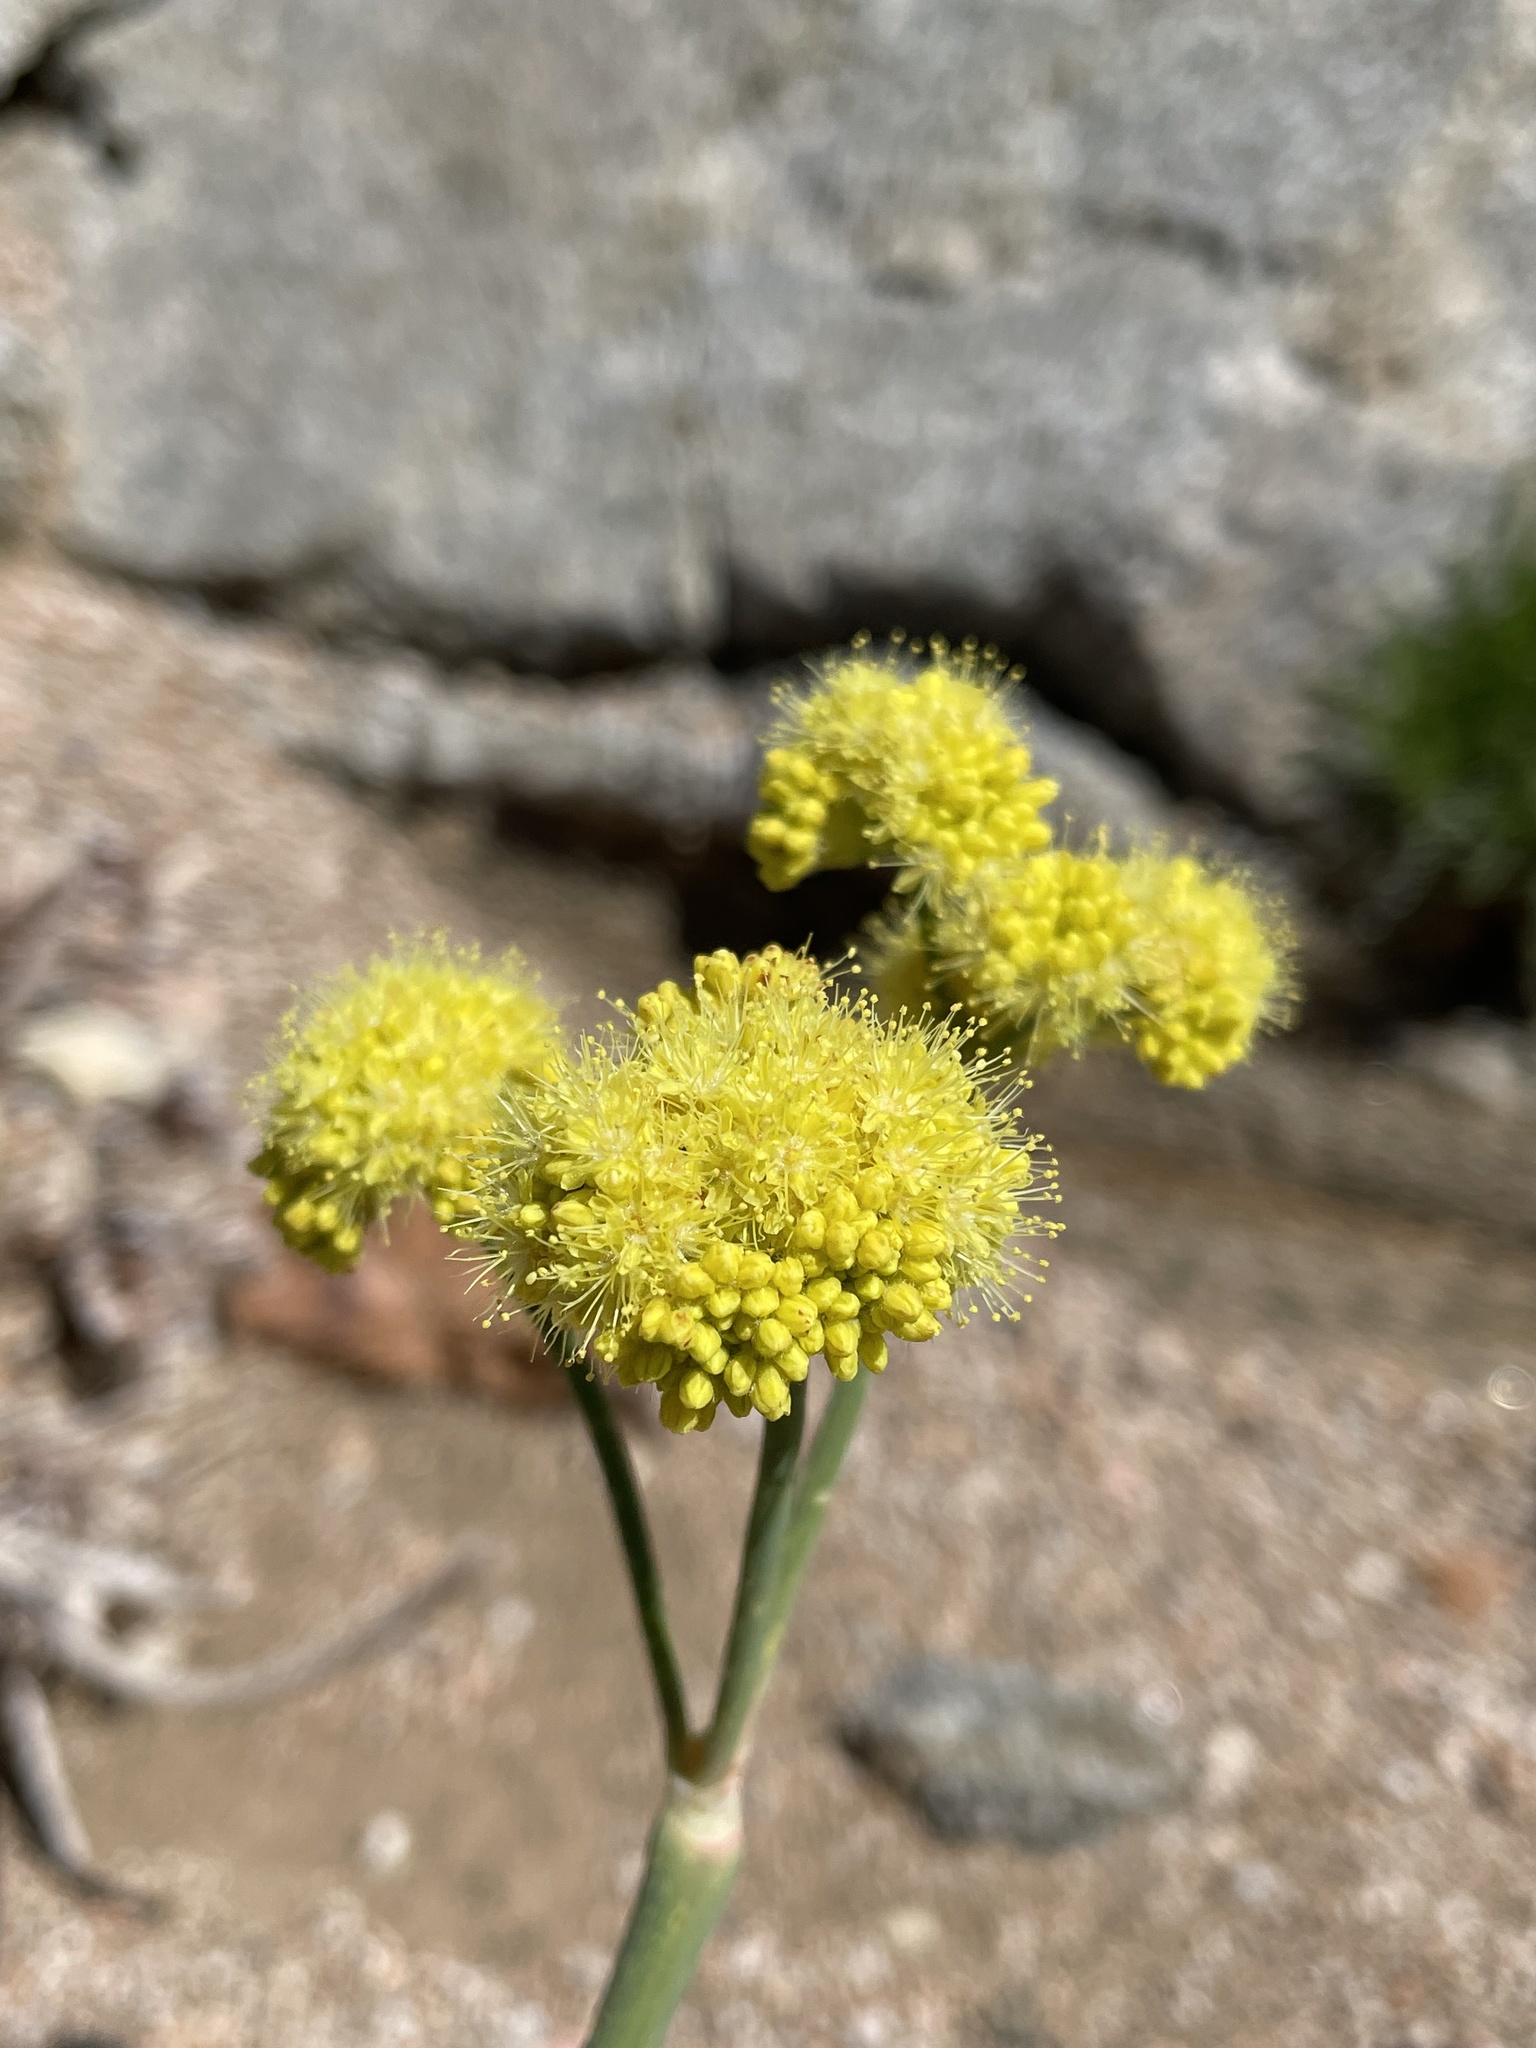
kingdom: Plantae
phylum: Tracheophyta
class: Magnoliopsida
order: Caryophyllales
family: Polygonaceae
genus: Eriogonum
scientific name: Eriogonum nudum
